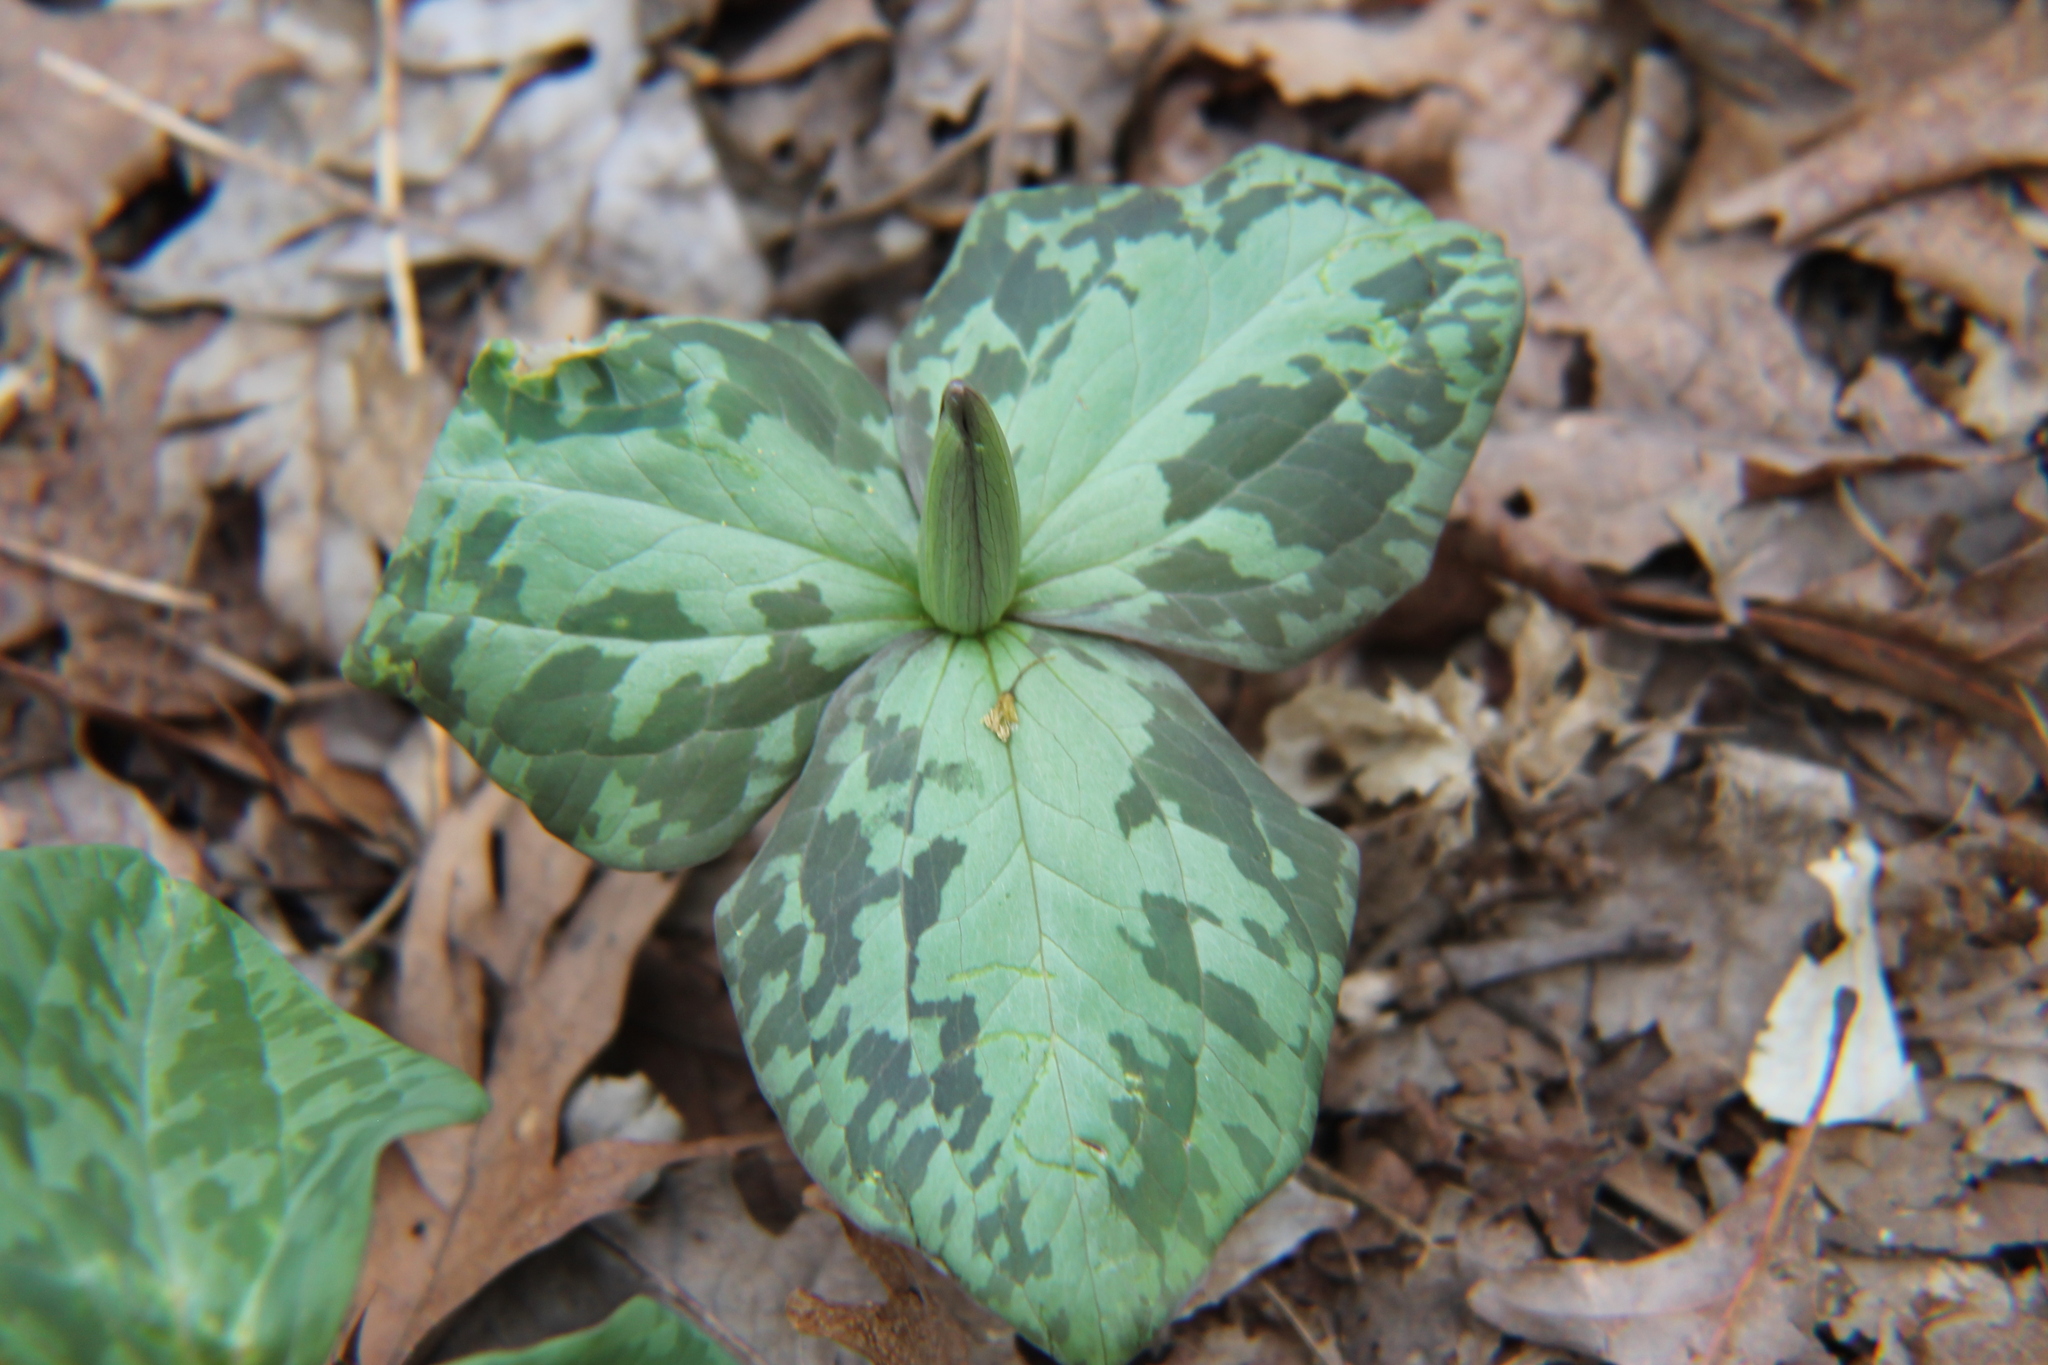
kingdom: Plantae
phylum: Tracheophyta
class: Liliopsida
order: Liliales
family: Melanthiaceae
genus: Trillium
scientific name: Trillium cuneatum
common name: Cuneate trillium
